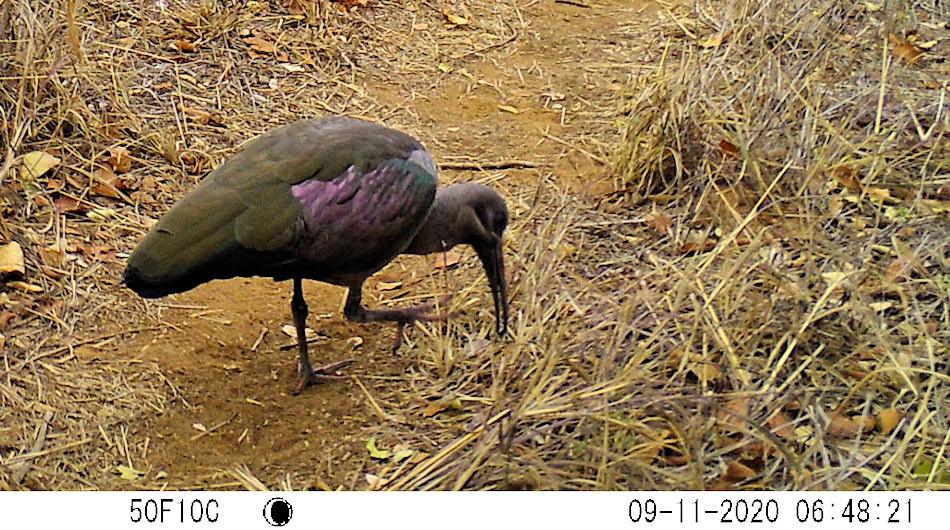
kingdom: Animalia
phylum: Chordata
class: Aves
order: Pelecaniformes
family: Threskiornithidae
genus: Bostrychia
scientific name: Bostrychia hagedash
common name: Hadada ibis
